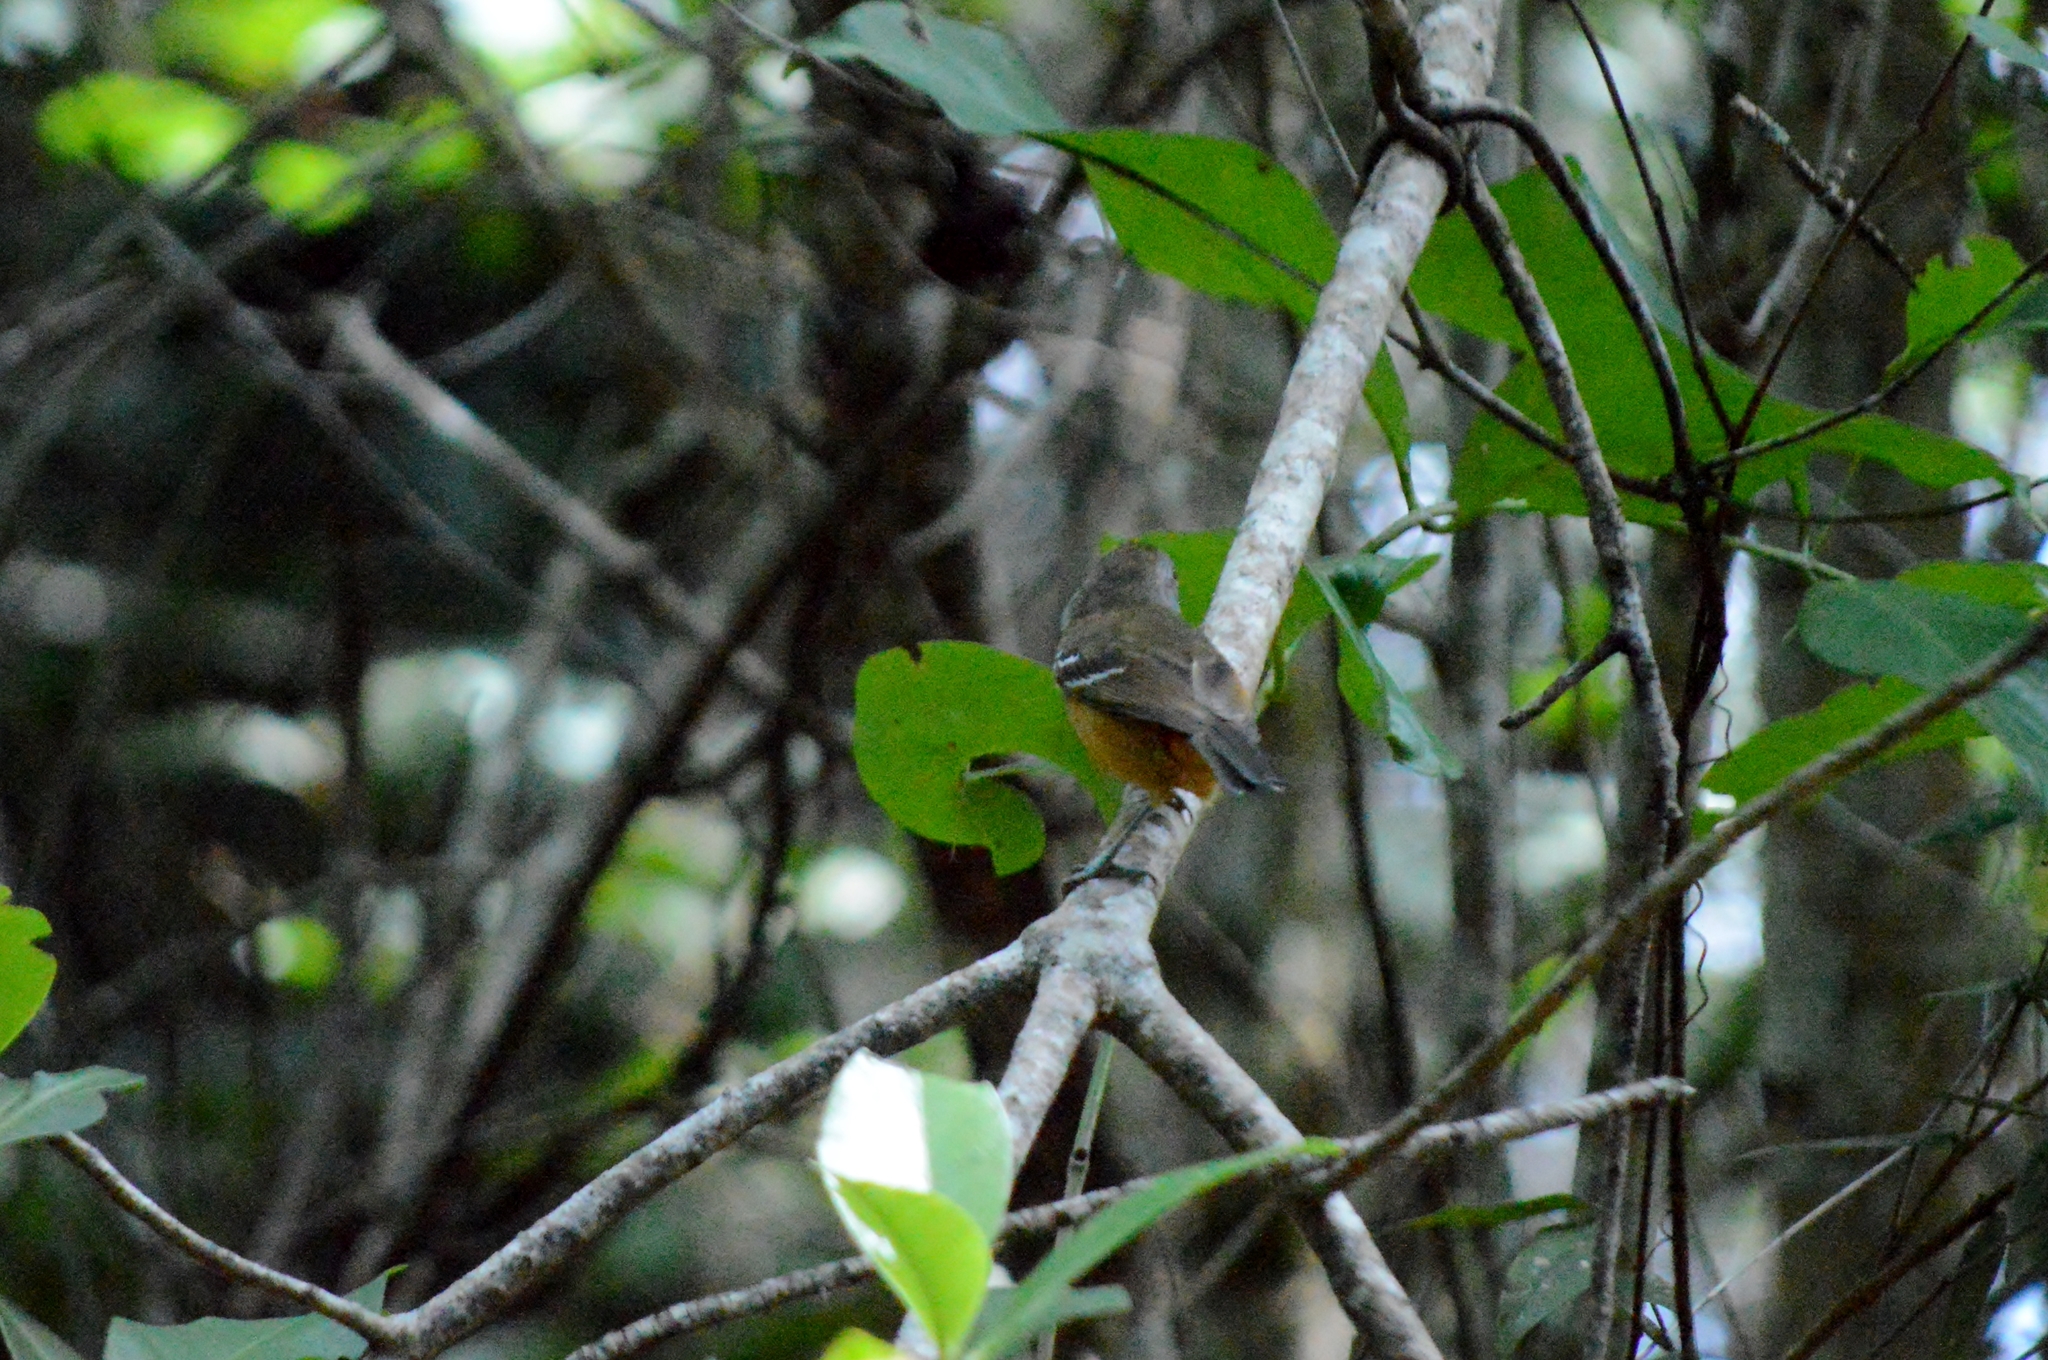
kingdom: Animalia
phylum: Chordata
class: Aves
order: Passeriformes
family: Thamnophilidae
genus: Thamnophilus
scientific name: Thamnophilus pelzelni
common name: Planalto slaty-antshrike
